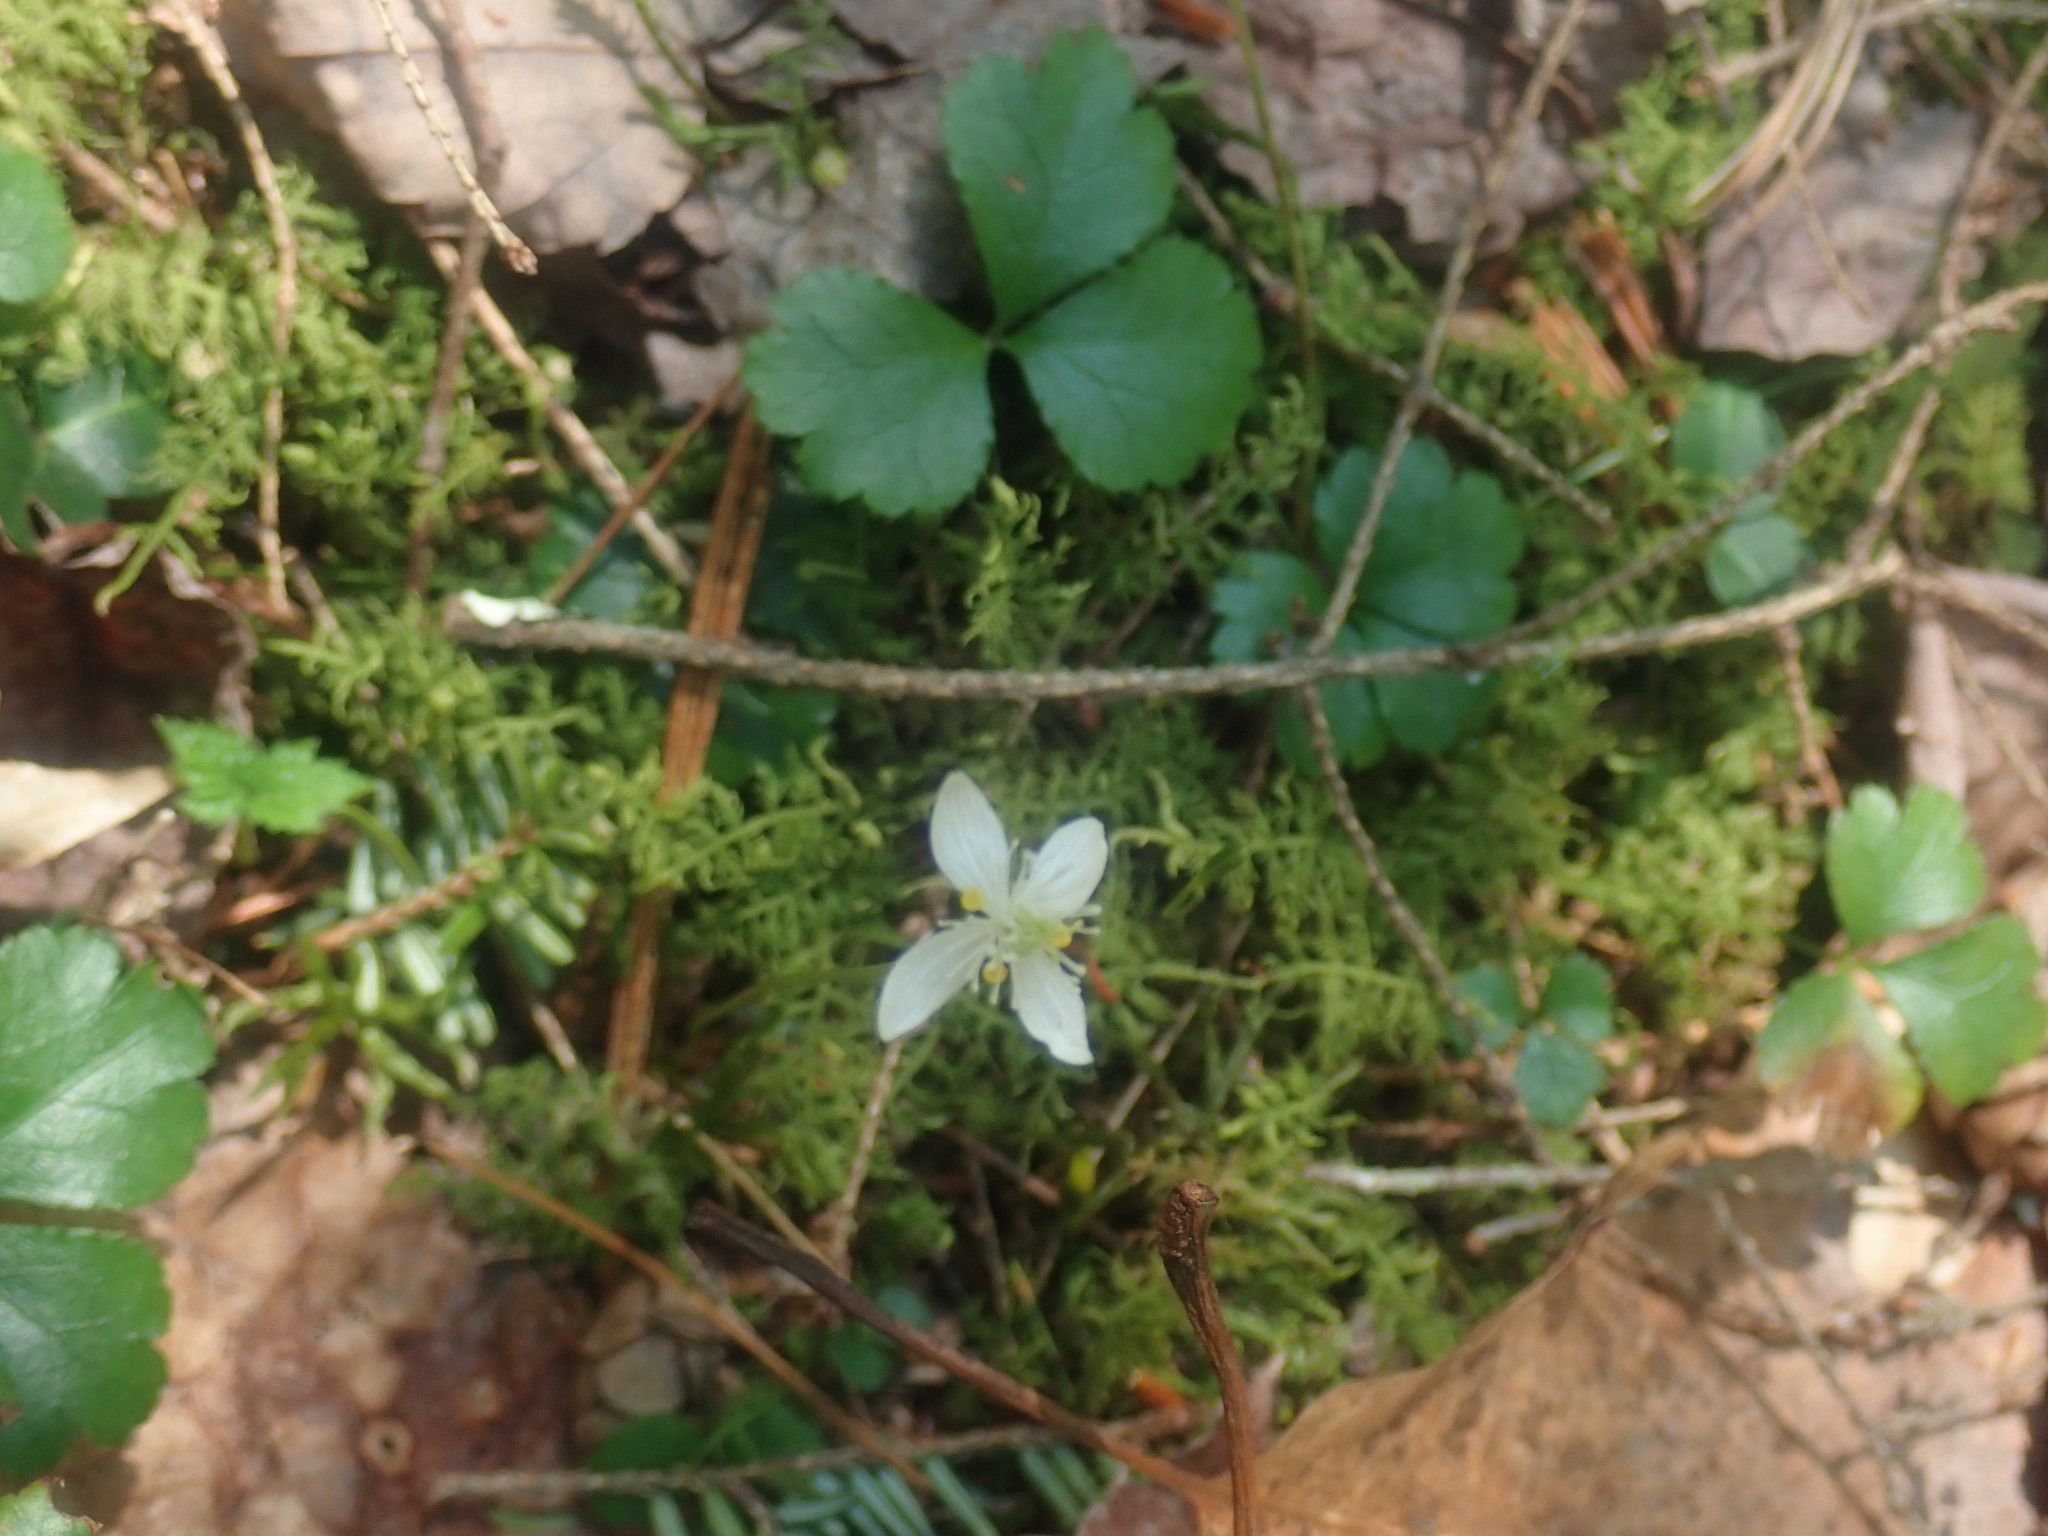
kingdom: Plantae
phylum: Tracheophyta
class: Magnoliopsida
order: Ranunculales
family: Ranunculaceae
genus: Coptis
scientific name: Coptis trifolia
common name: Canker-root
